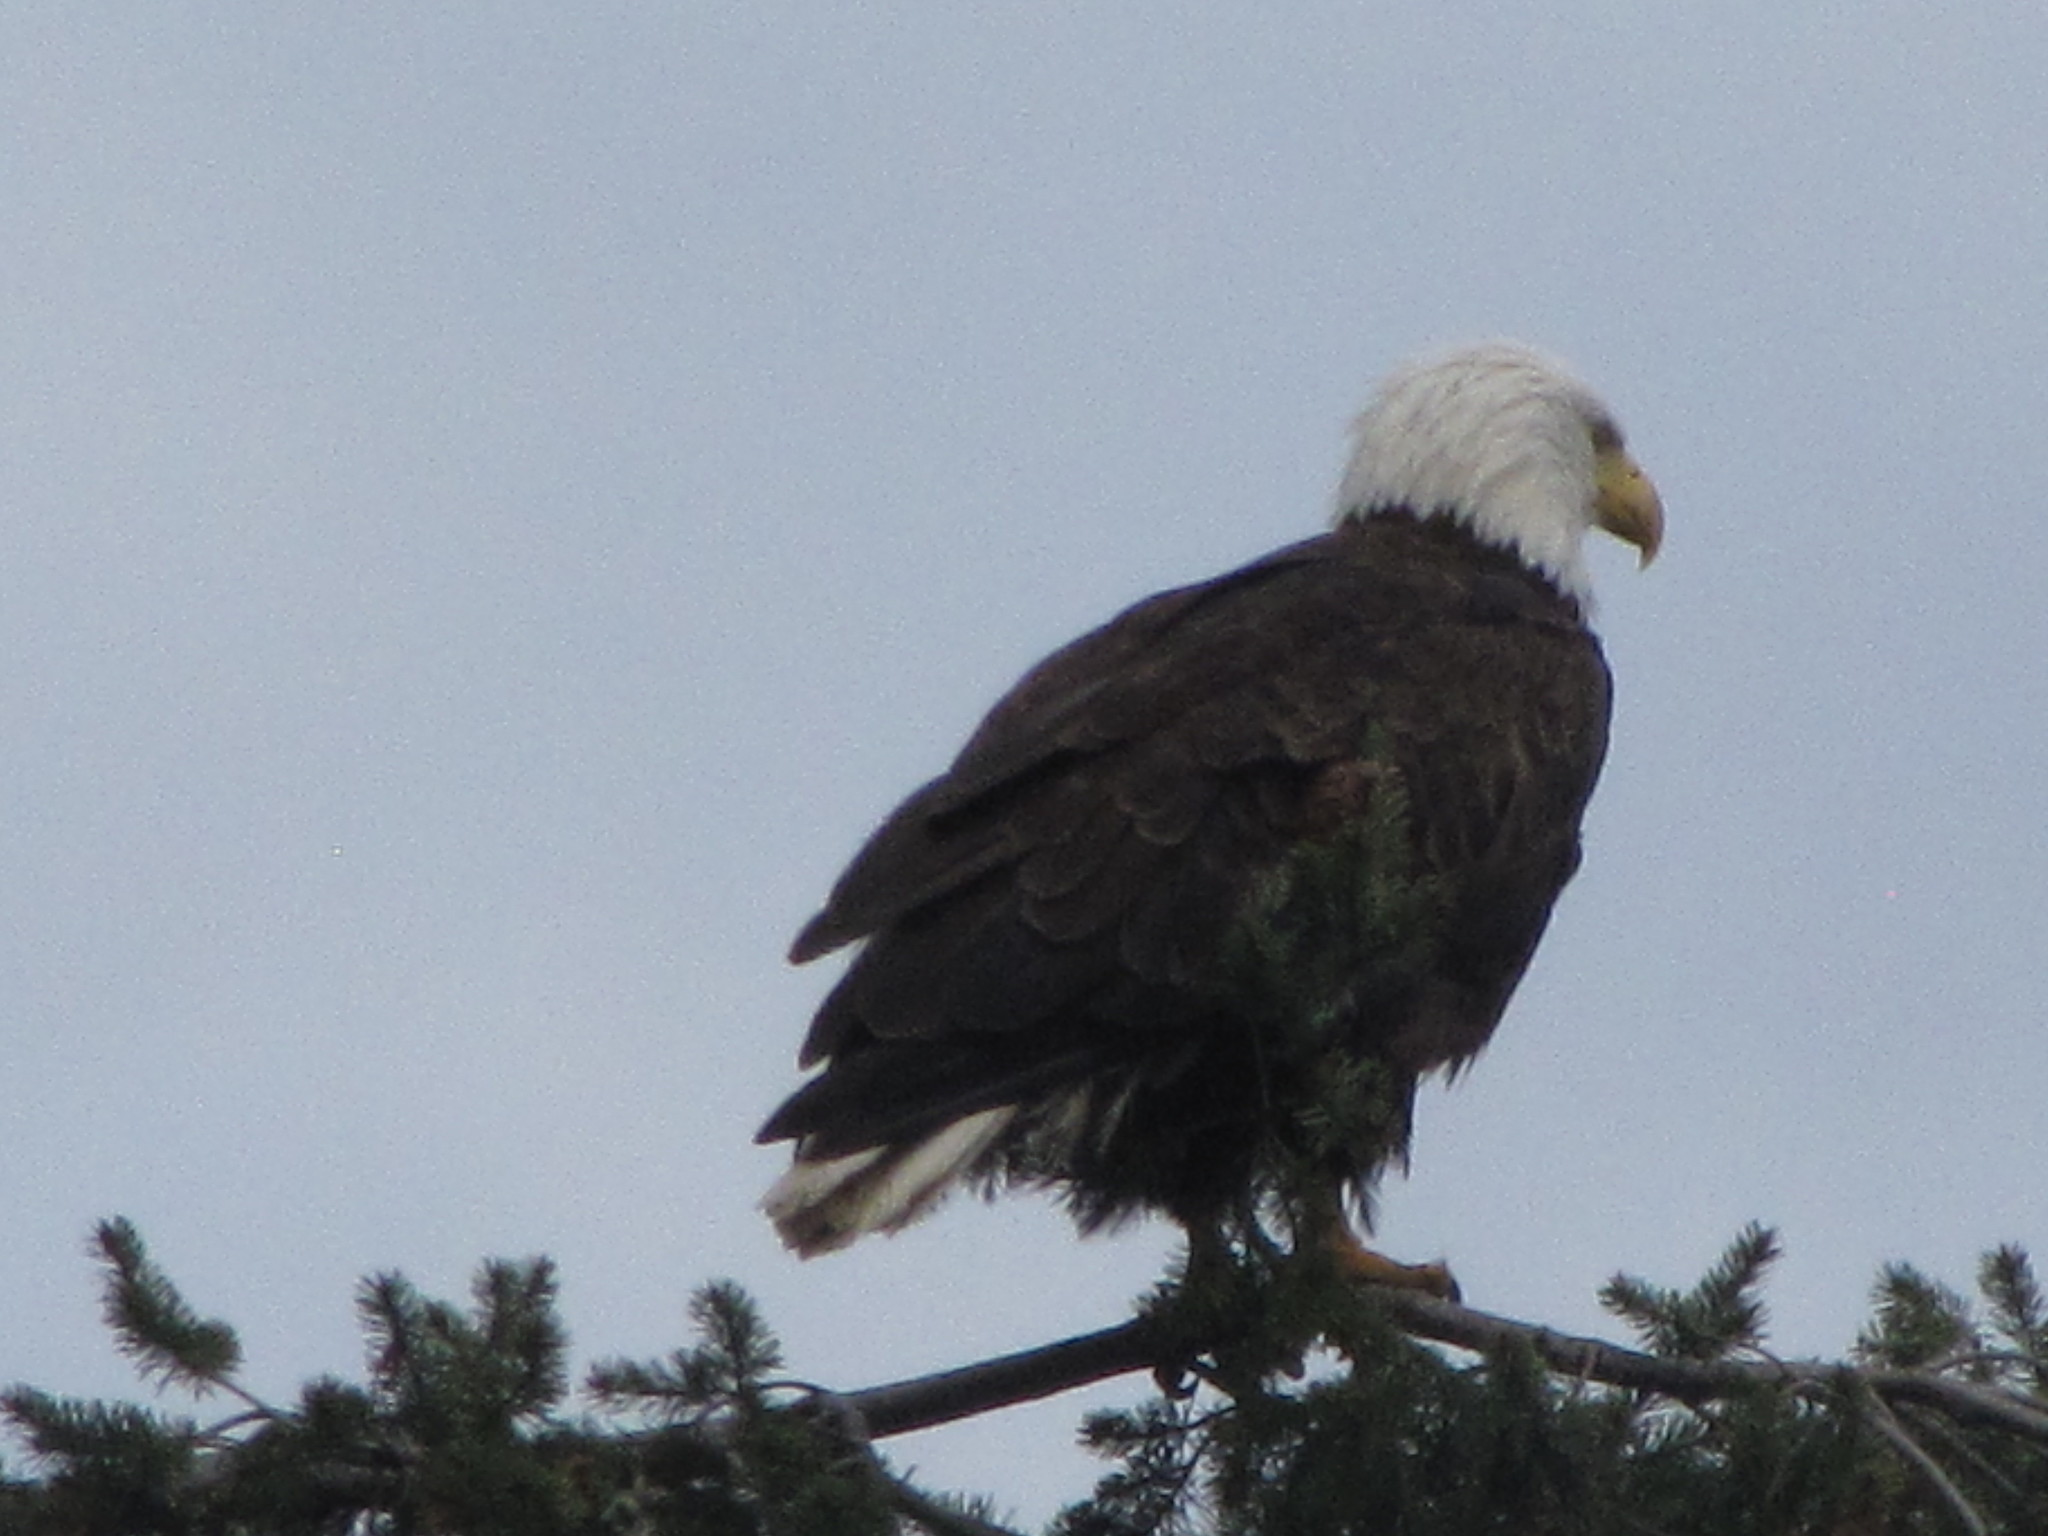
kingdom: Animalia
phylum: Chordata
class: Aves
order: Accipitriformes
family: Accipitridae
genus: Haliaeetus
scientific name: Haliaeetus leucocephalus
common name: Bald eagle
